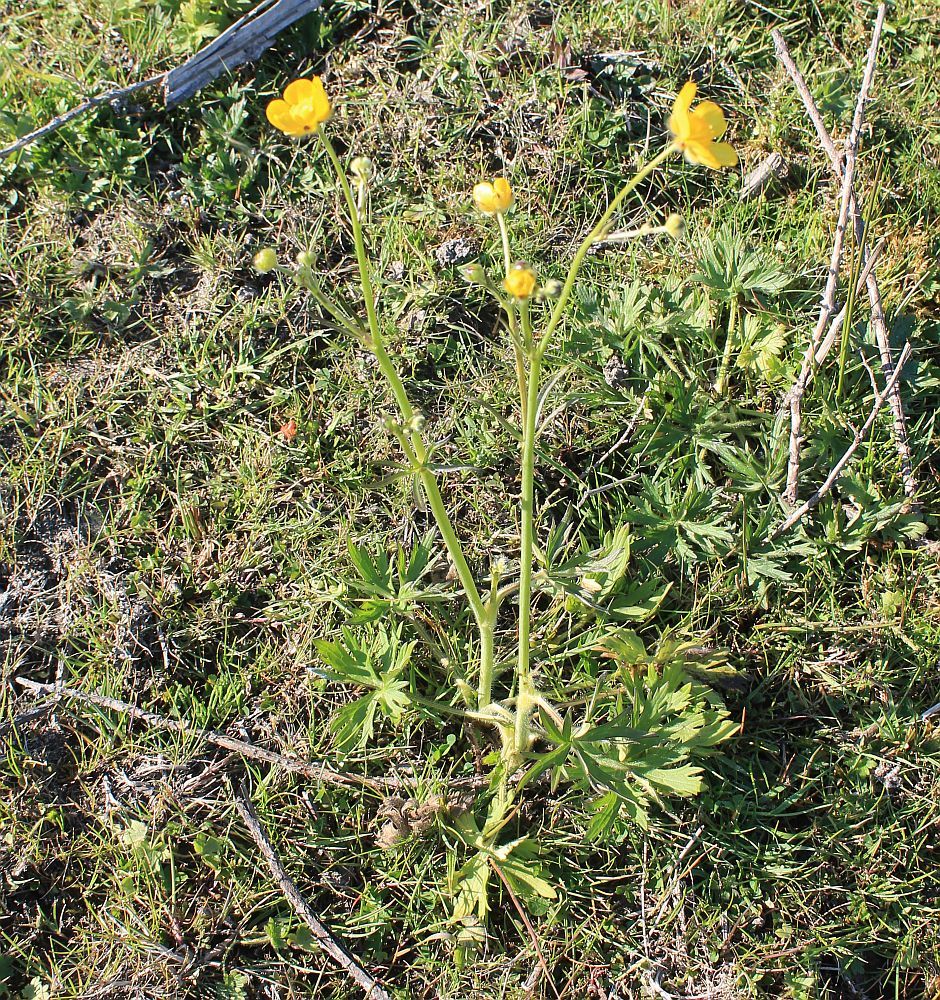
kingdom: Plantae
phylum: Tracheophyta
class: Magnoliopsida
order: Ranunculales
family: Ranunculaceae
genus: Ranunculus
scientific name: Ranunculus acris
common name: Meadow buttercup
